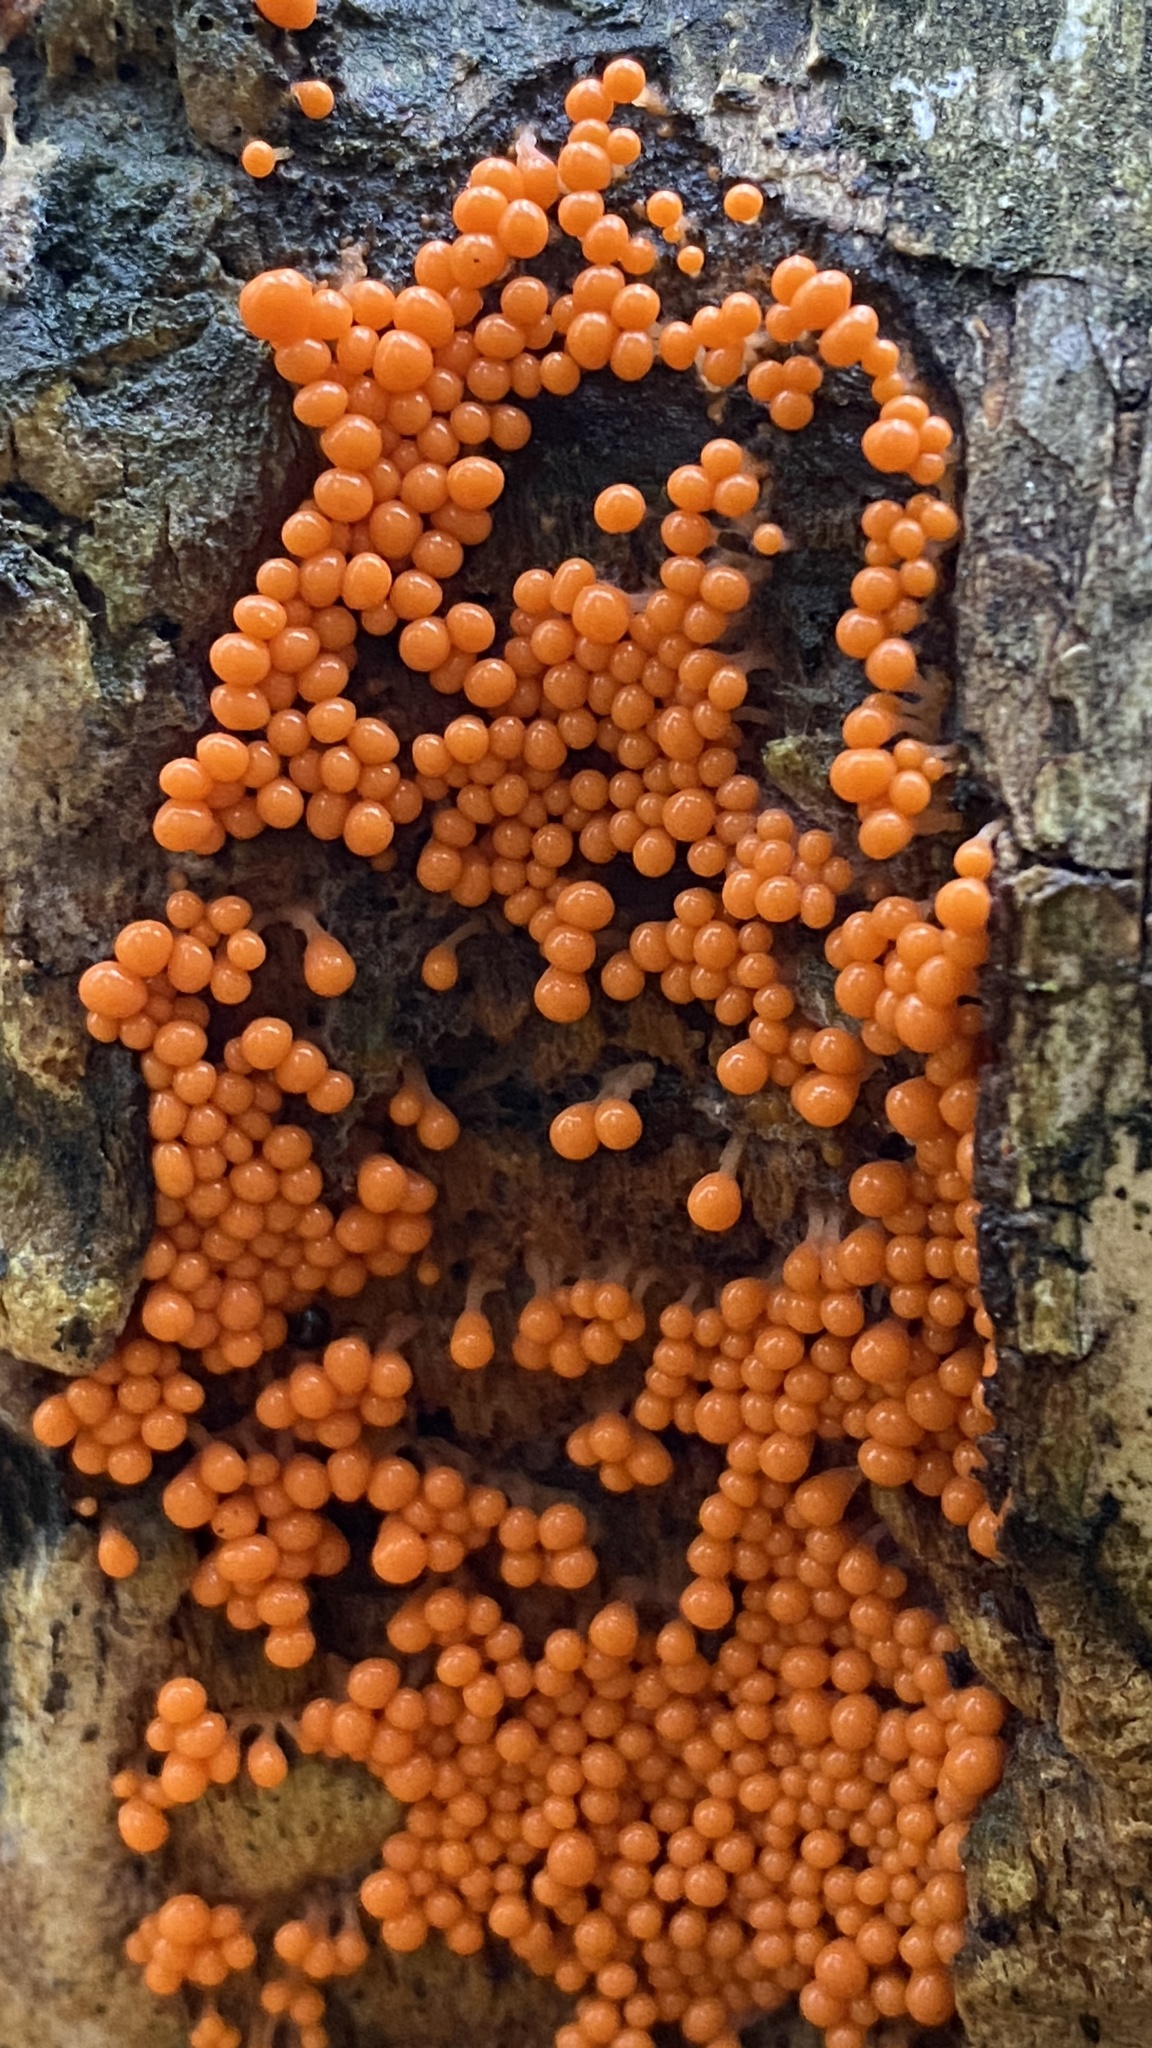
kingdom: Protozoa
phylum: Mycetozoa
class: Myxomycetes
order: Trichiales
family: Arcyriaceae
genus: Hemitrichia
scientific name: Hemitrichia decipiens
